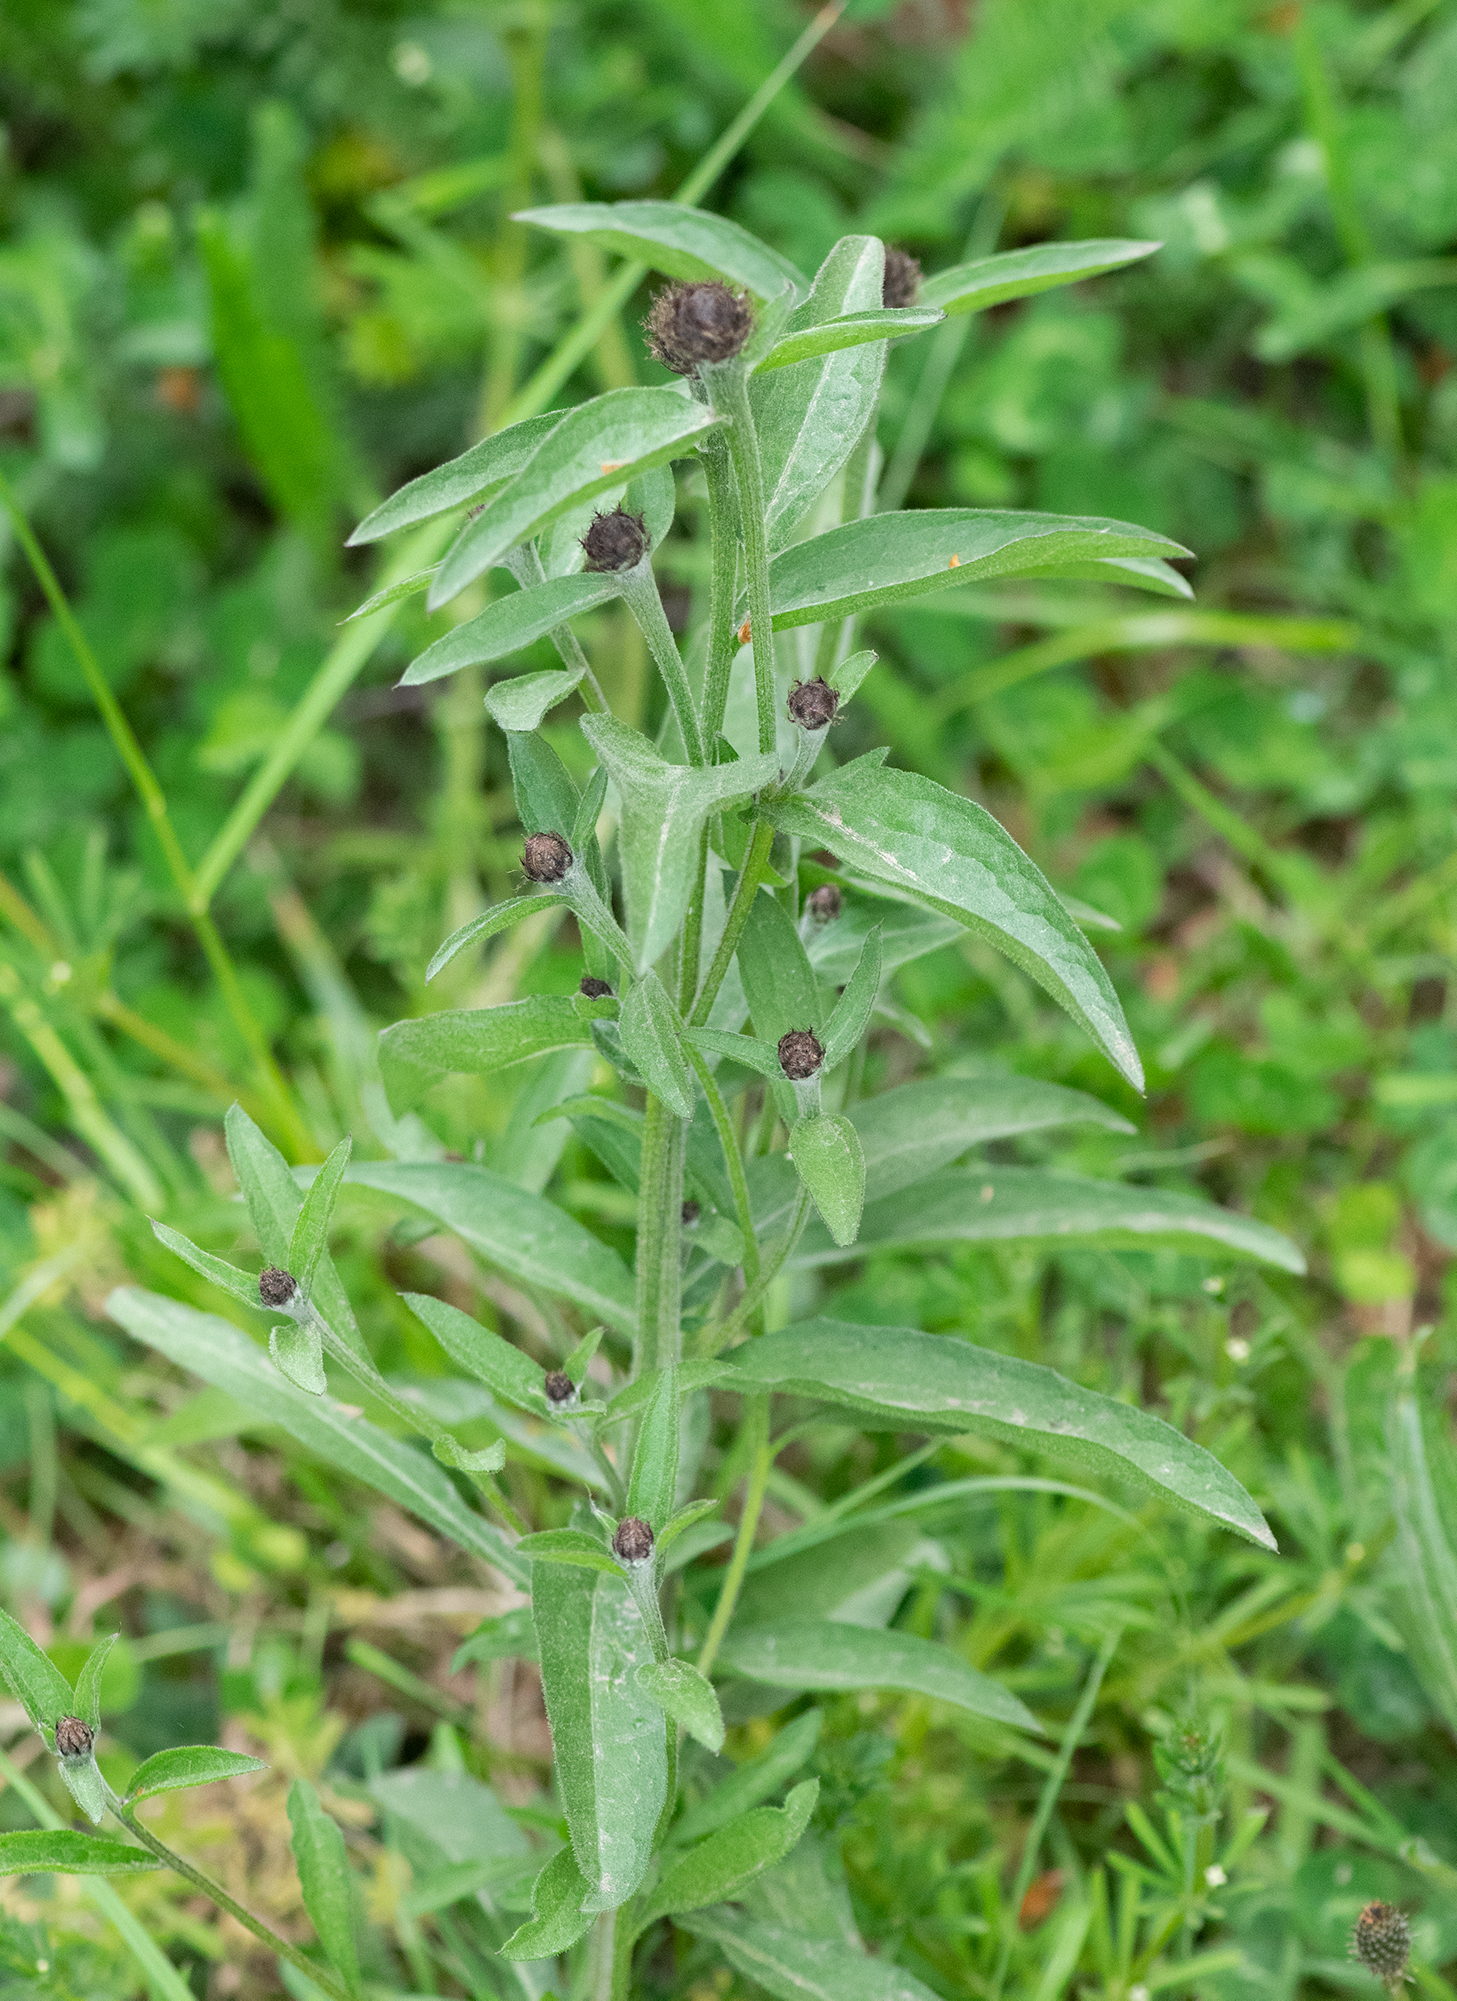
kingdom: Plantae
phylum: Tracheophyta
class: Magnoliopsida
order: Asterales
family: Asteraceae
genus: Centaurea
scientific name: Centaurea nigra
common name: Lesser knapweed
